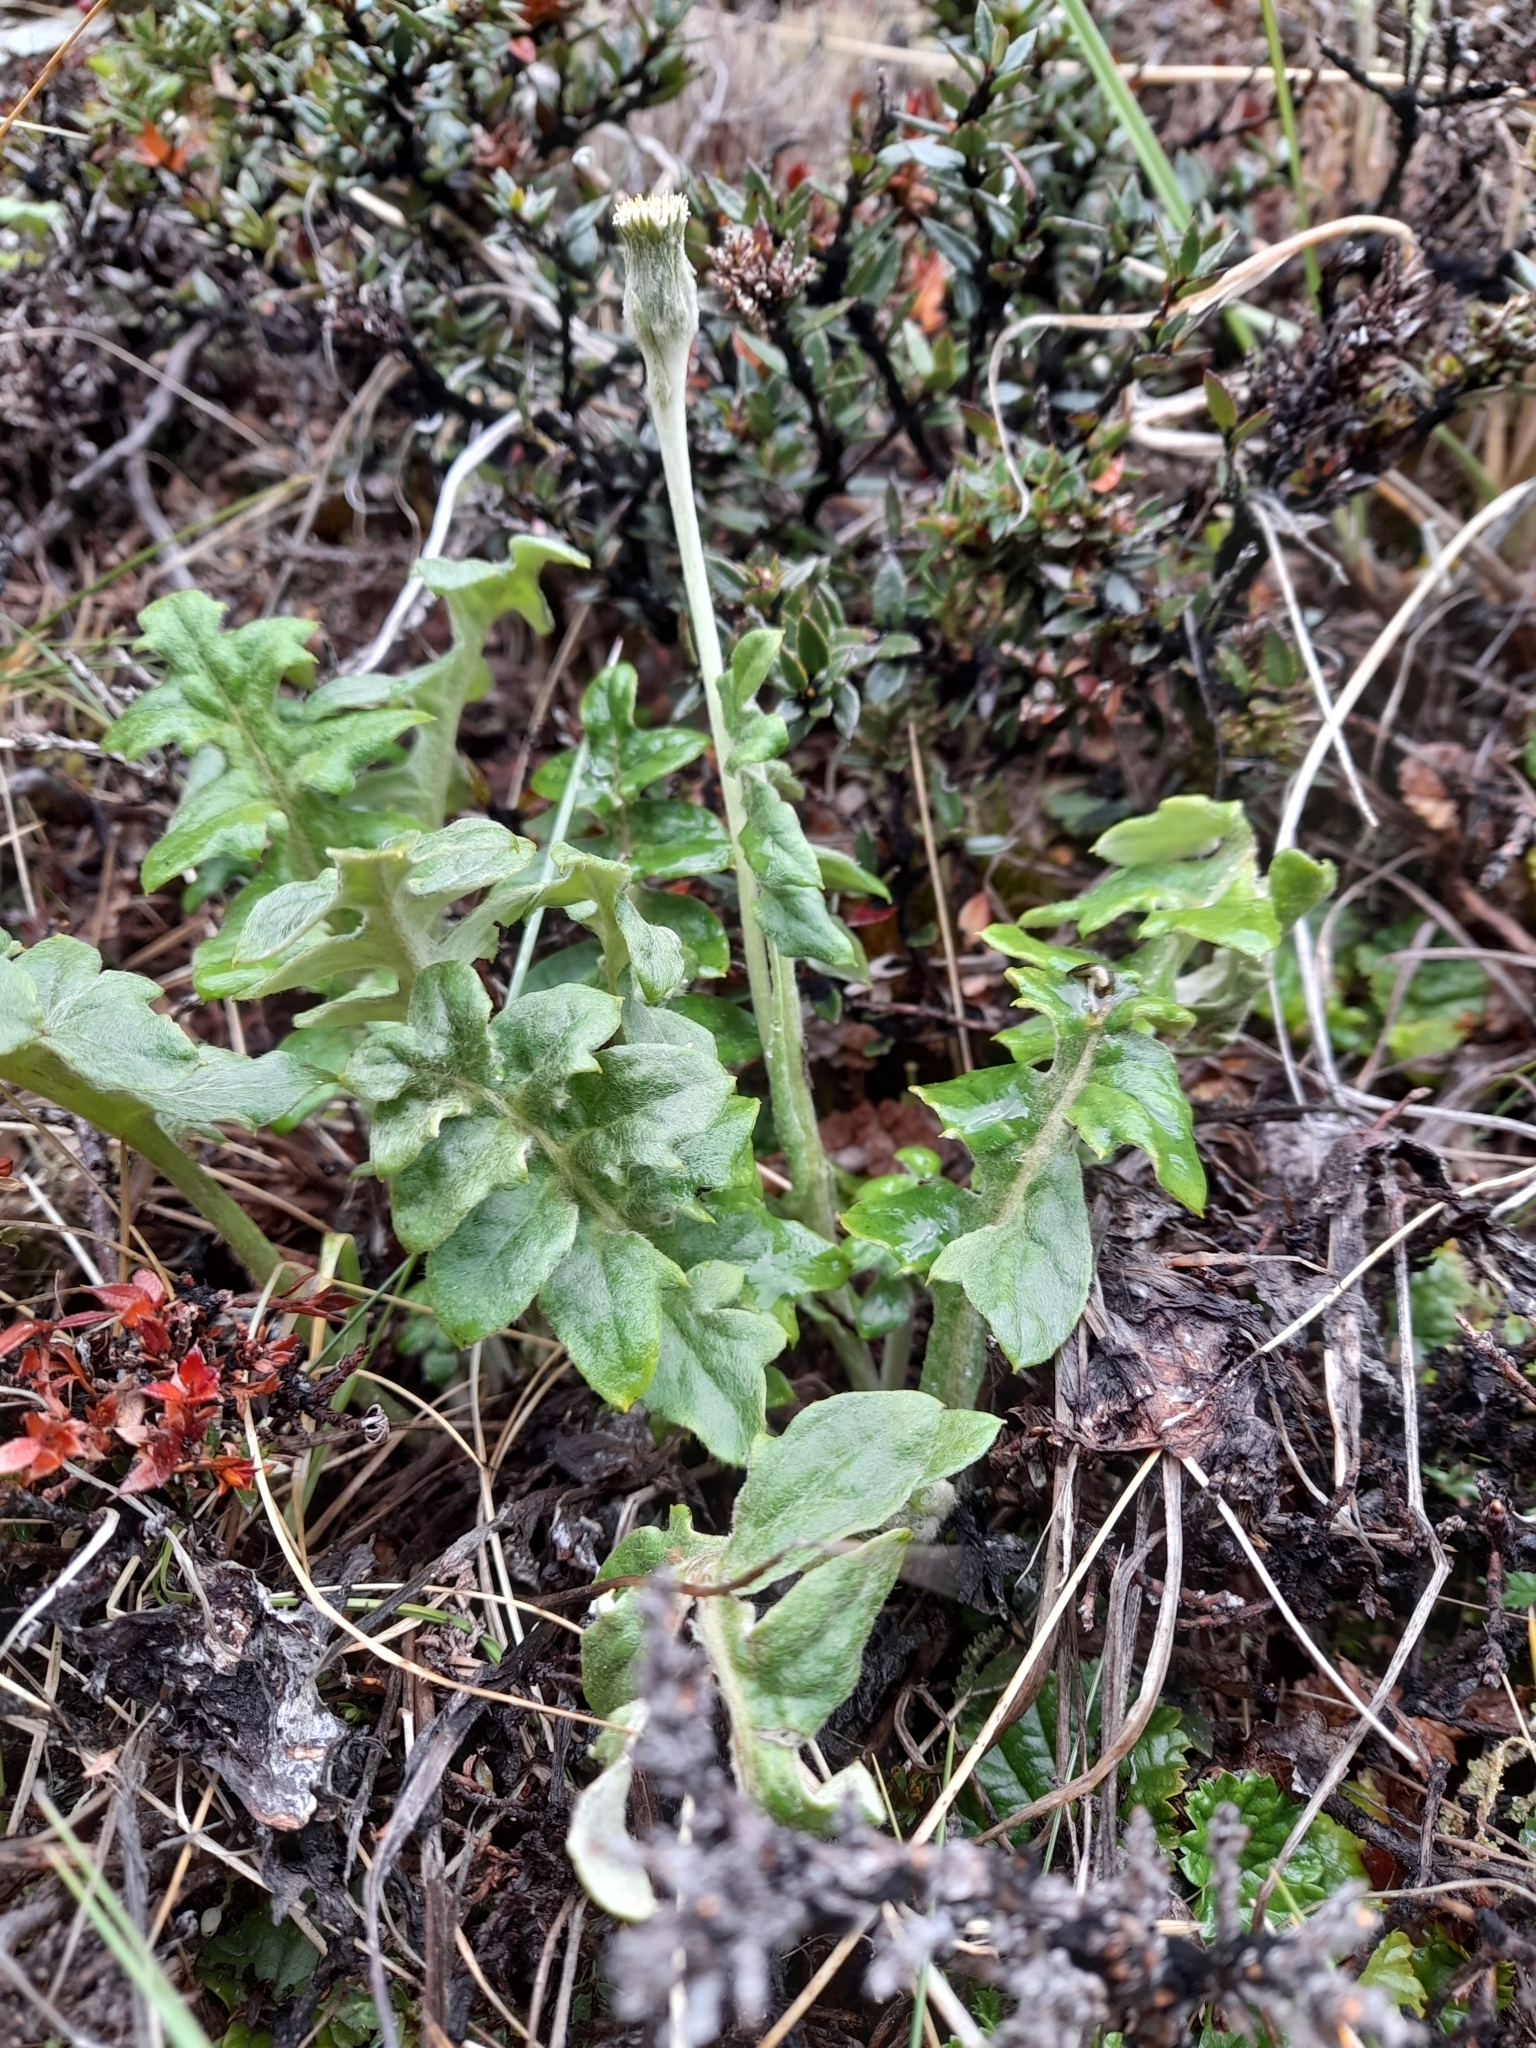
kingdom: Plantae
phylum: Tracheophyta
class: Magnoliopsida
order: Asterales
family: Asteraceae
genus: Macrachaenium
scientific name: Macrachaenium gracile
